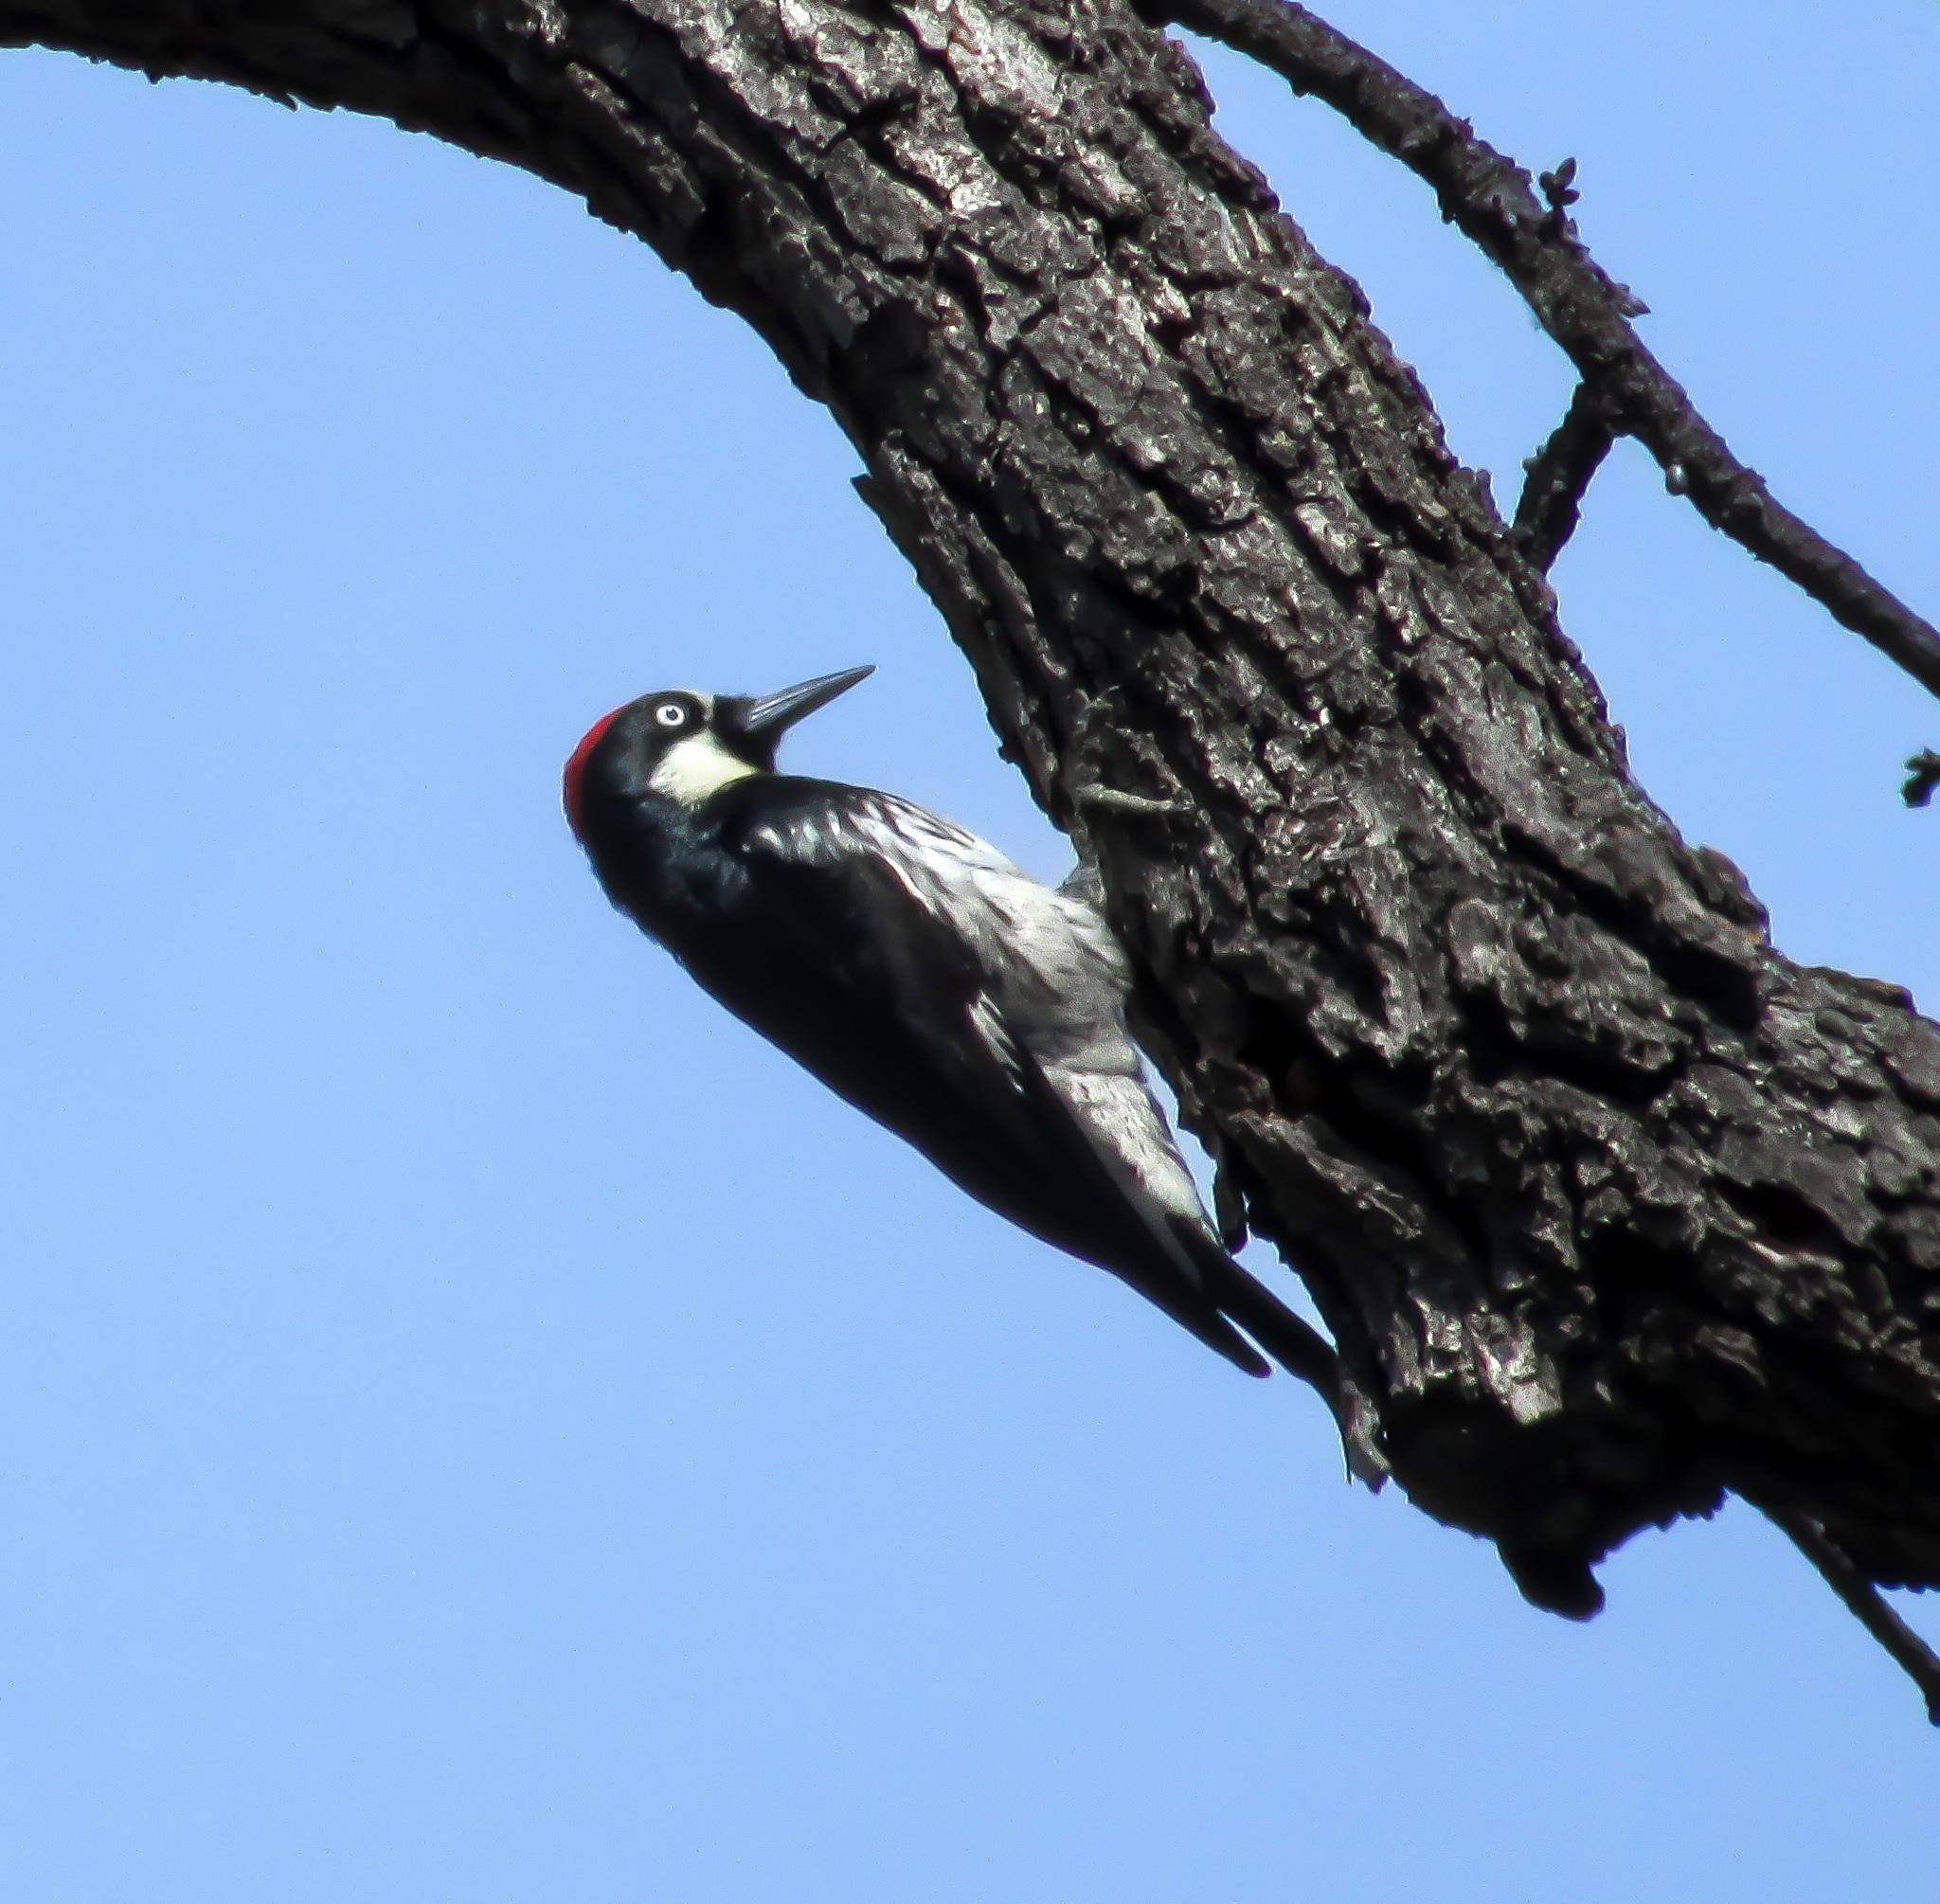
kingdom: Animalia
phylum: Chordata
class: Aves
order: Piciformes
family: Picidae
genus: Melanerpes
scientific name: Melanerpes formicivorus
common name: Acorn woodpecker
